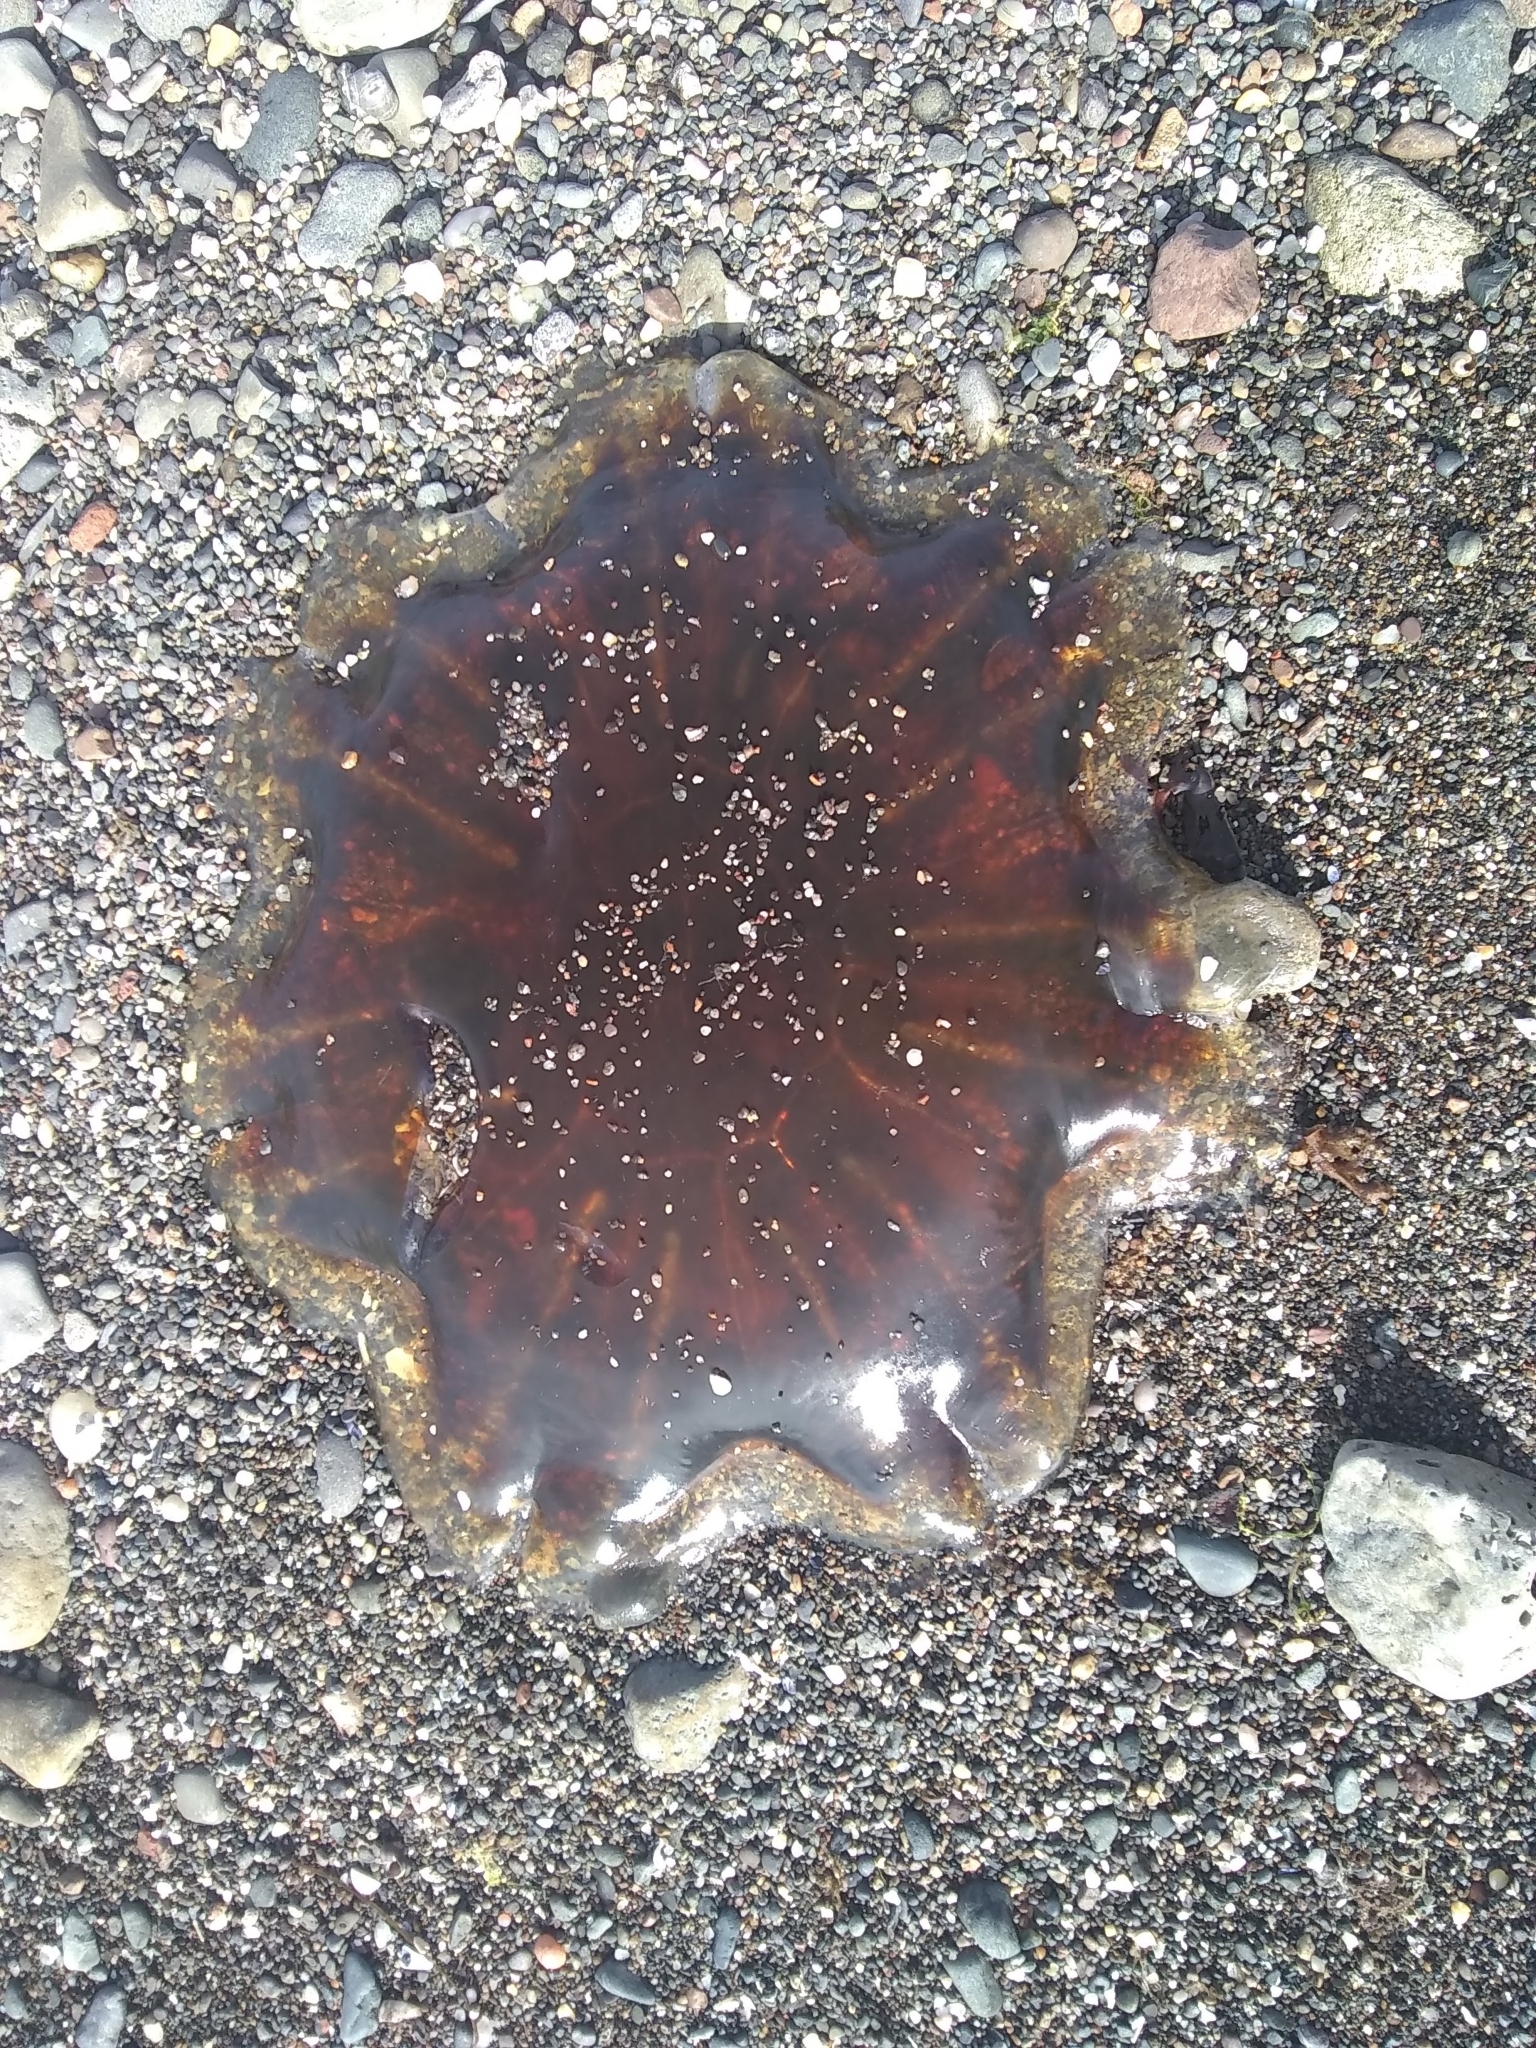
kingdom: Animalia
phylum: Cnidaria
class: Scyphozoa
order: Semaeostomeae
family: Cyaneidae
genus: Cyanea
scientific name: Cyanea capillata
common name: Lion's mane jellyfish
